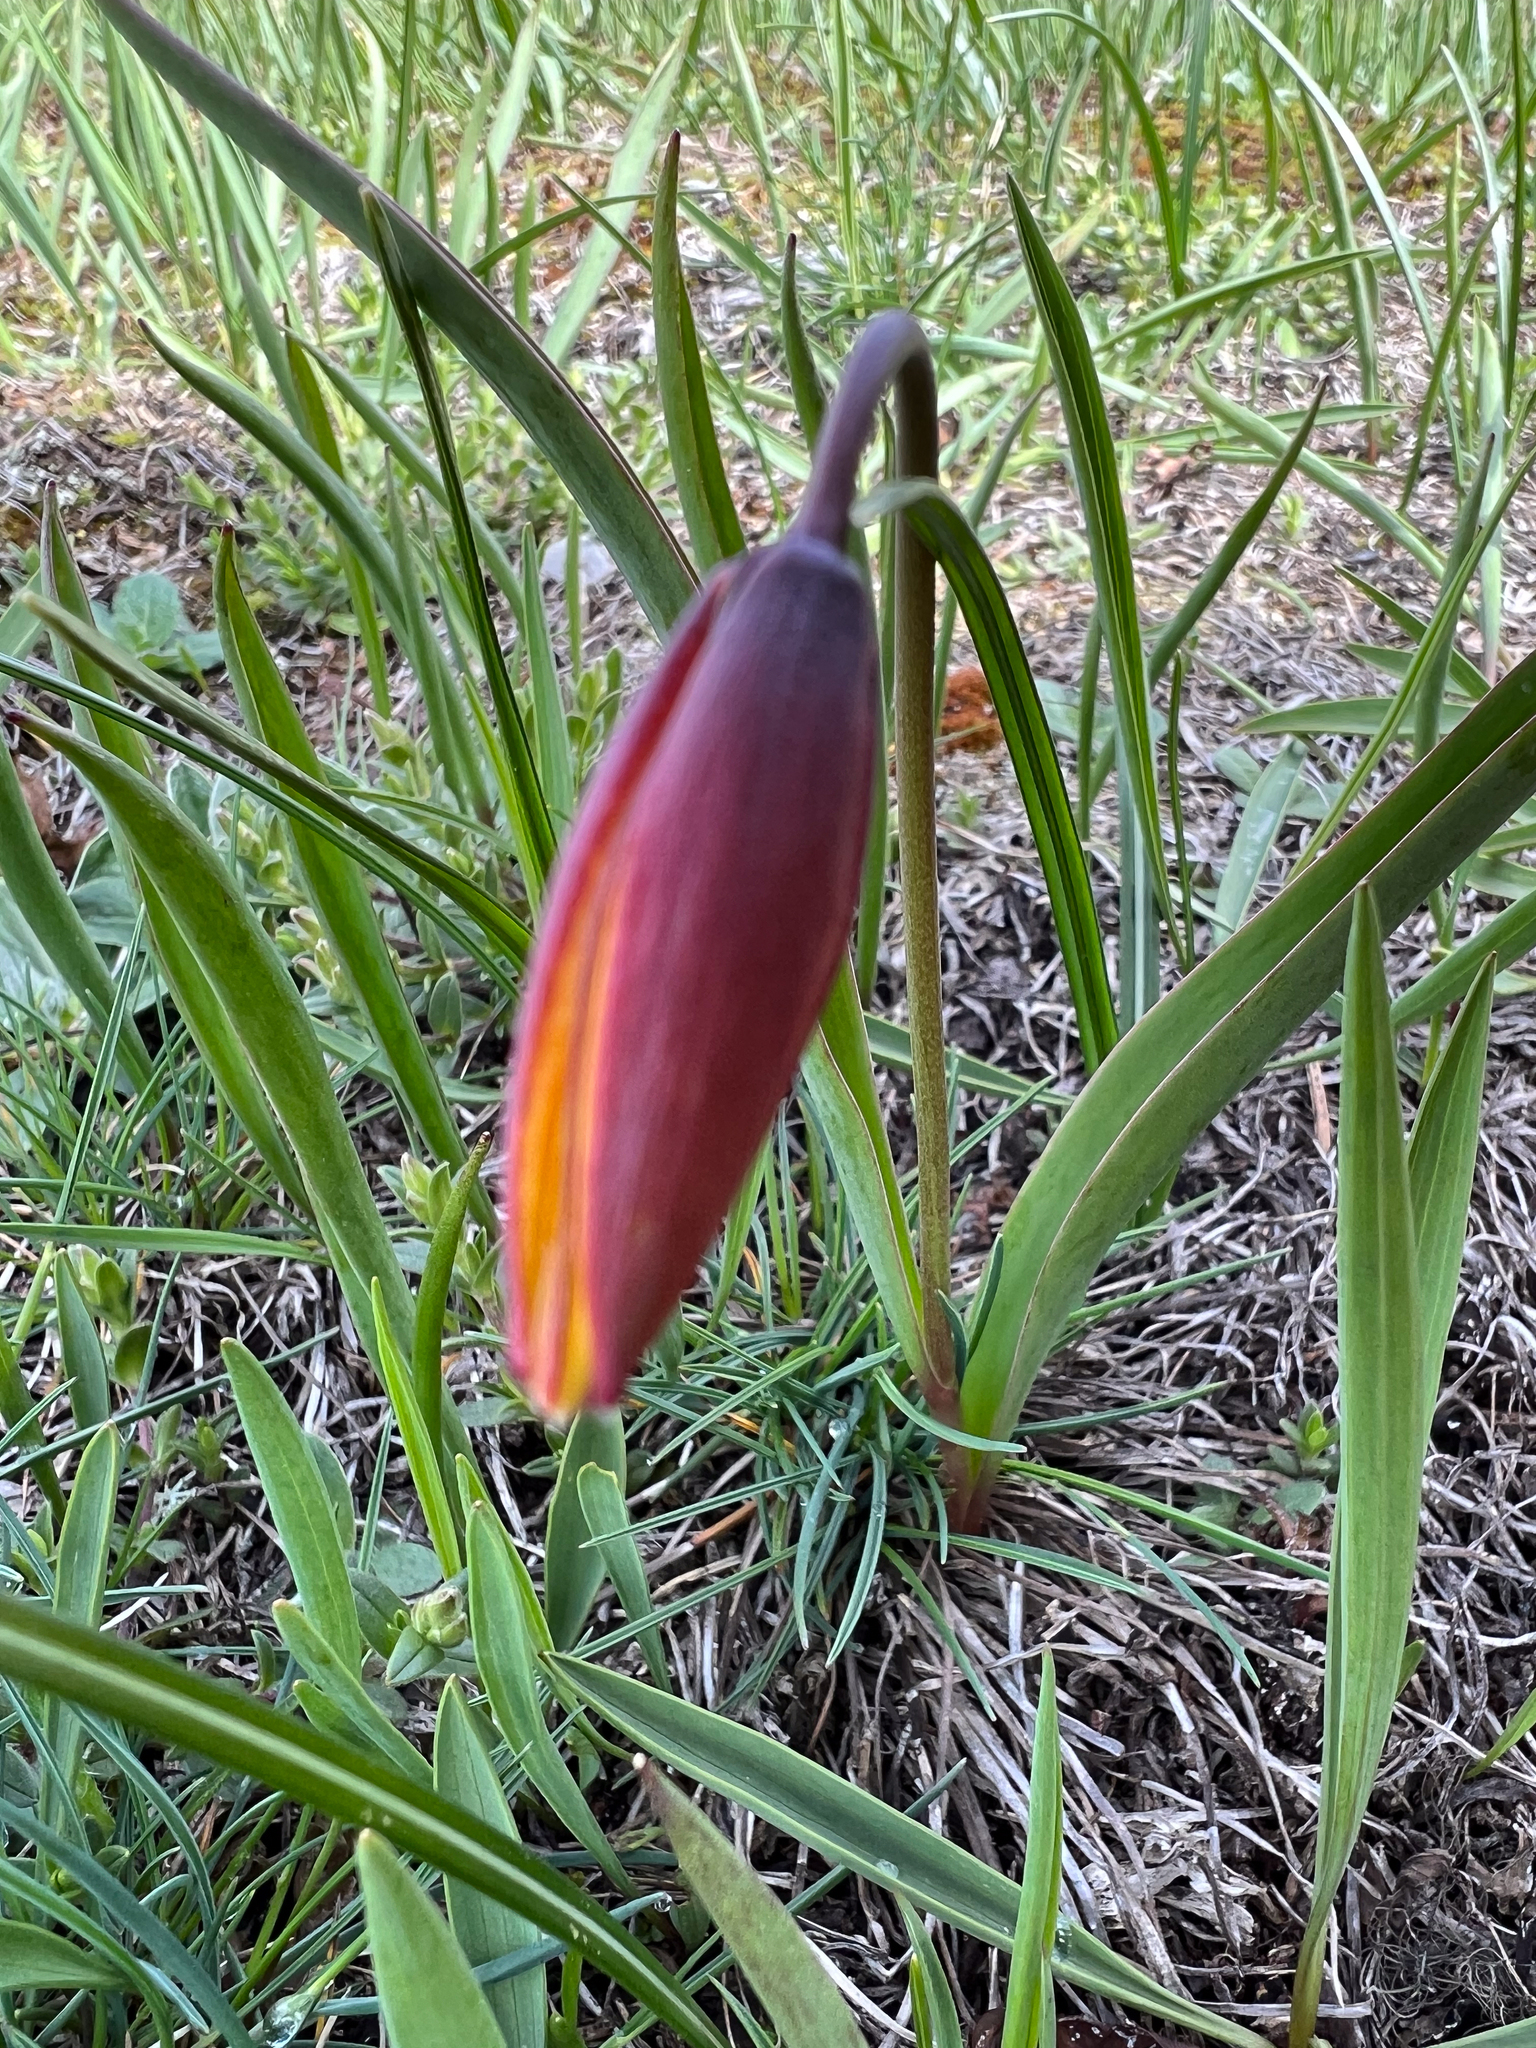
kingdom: Plantae
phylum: Tracheophyta
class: Liliopsida
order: Liliales
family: Liliaceae
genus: Tulipa
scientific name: Tulipa sylvestris
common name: Wild tulip
